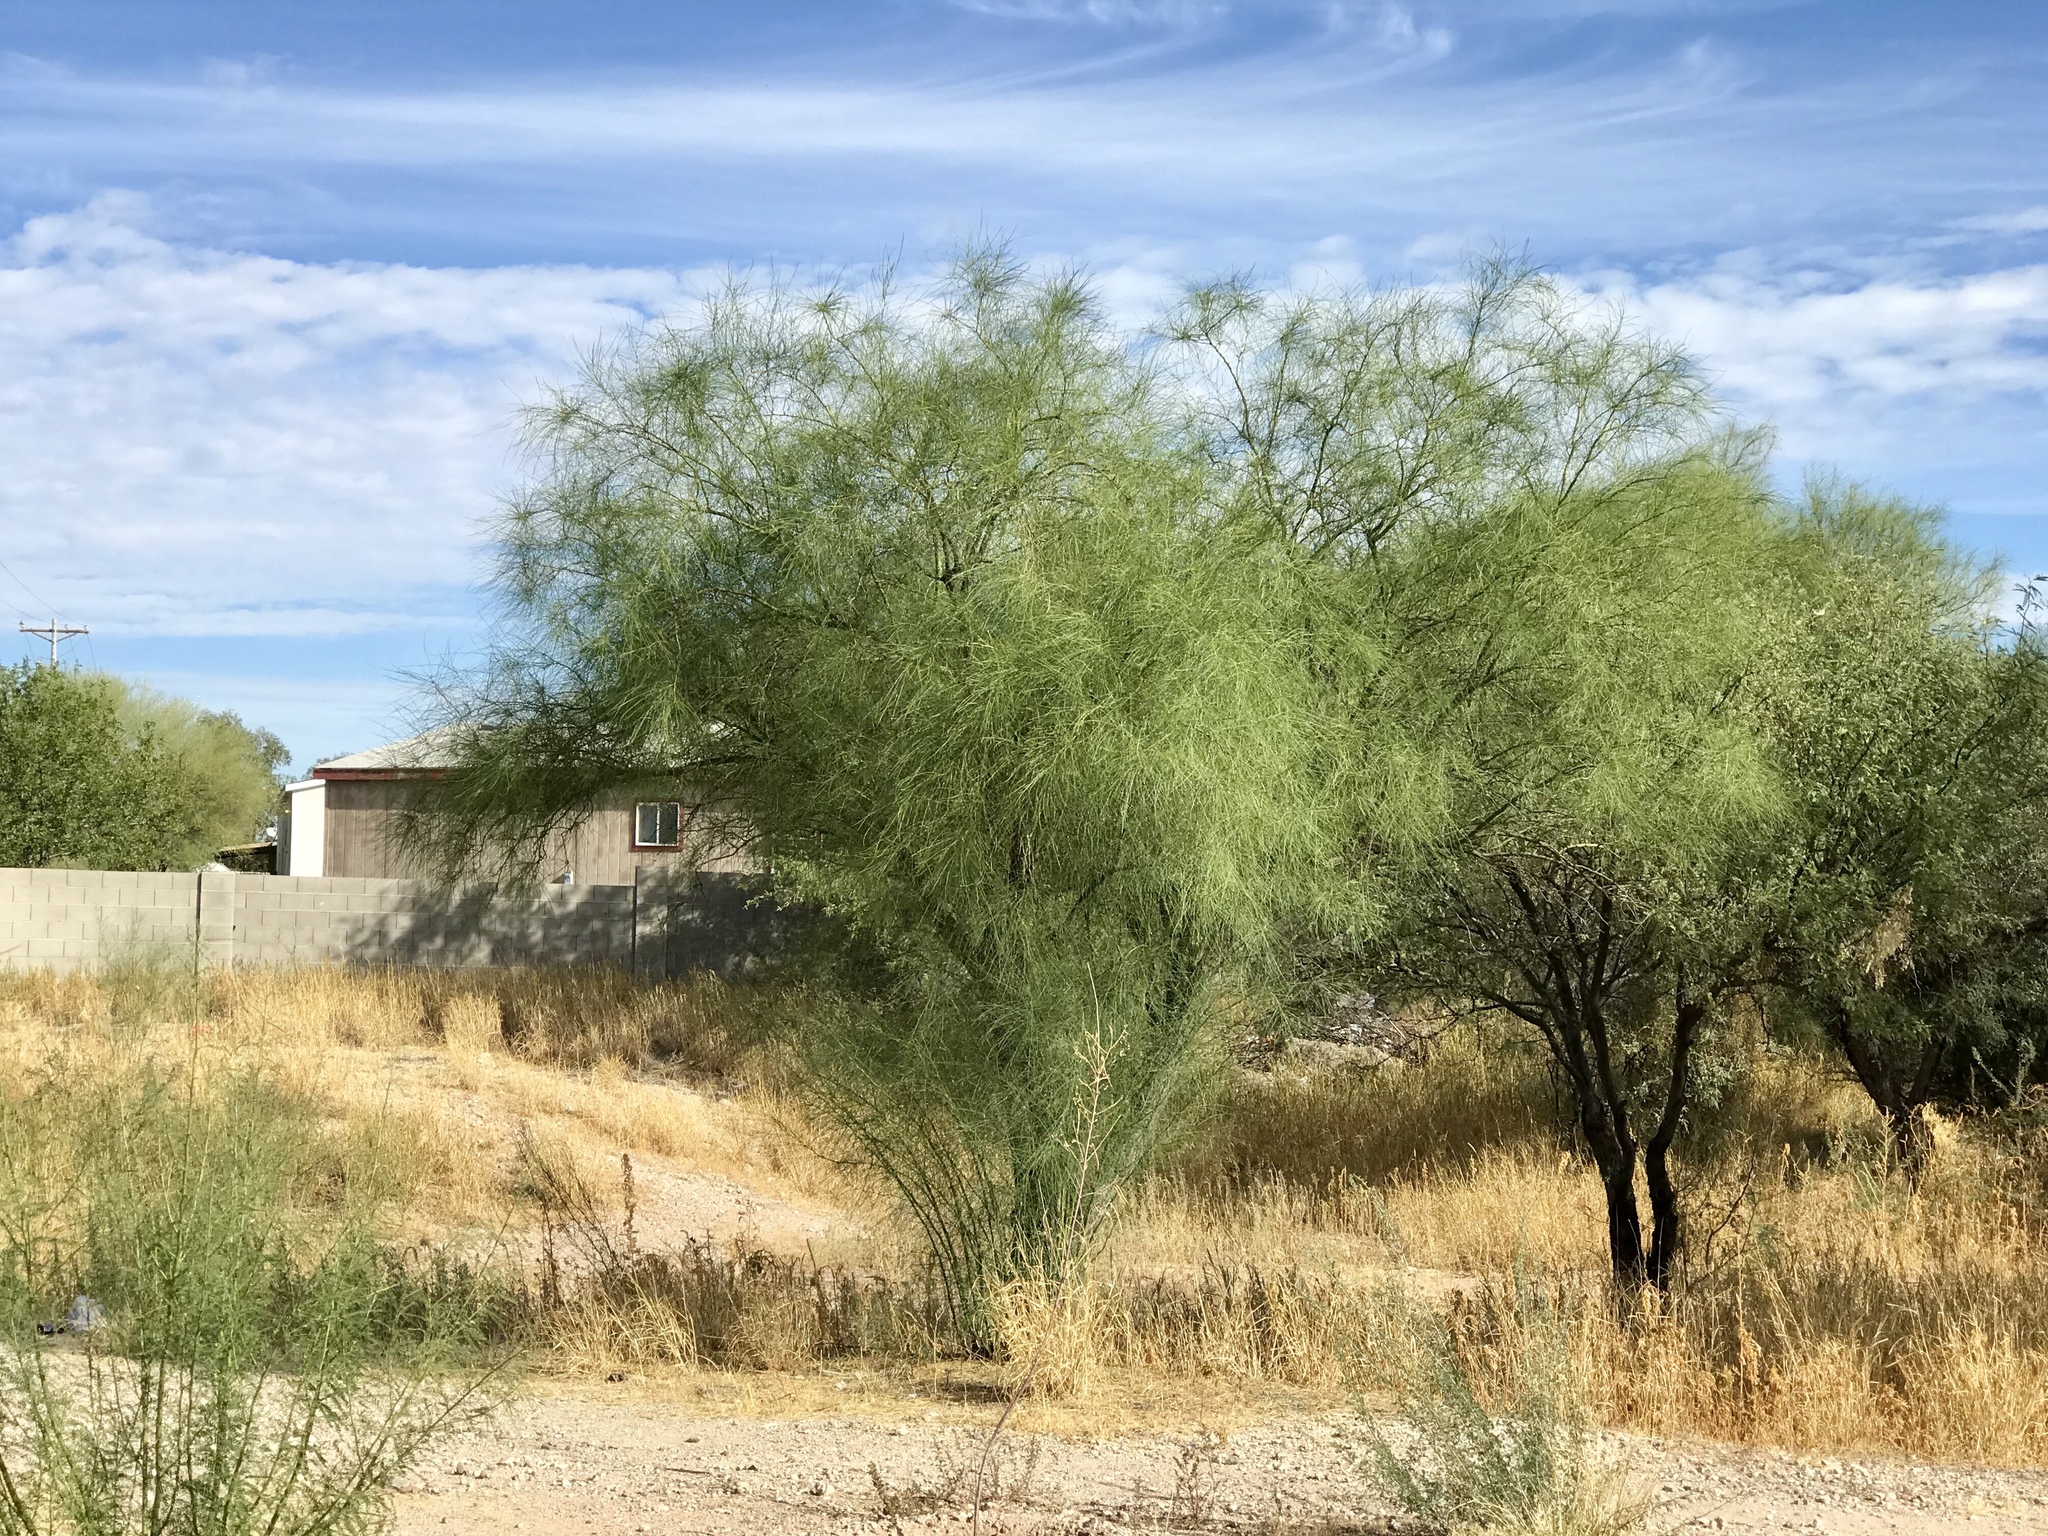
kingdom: Plantae
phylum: Tracheophyta
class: Magnoliopsida
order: Fabales
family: Fabaceae
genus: Parkinsonia
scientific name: Parkinsonia aculeata
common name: Jerusalem thorn
